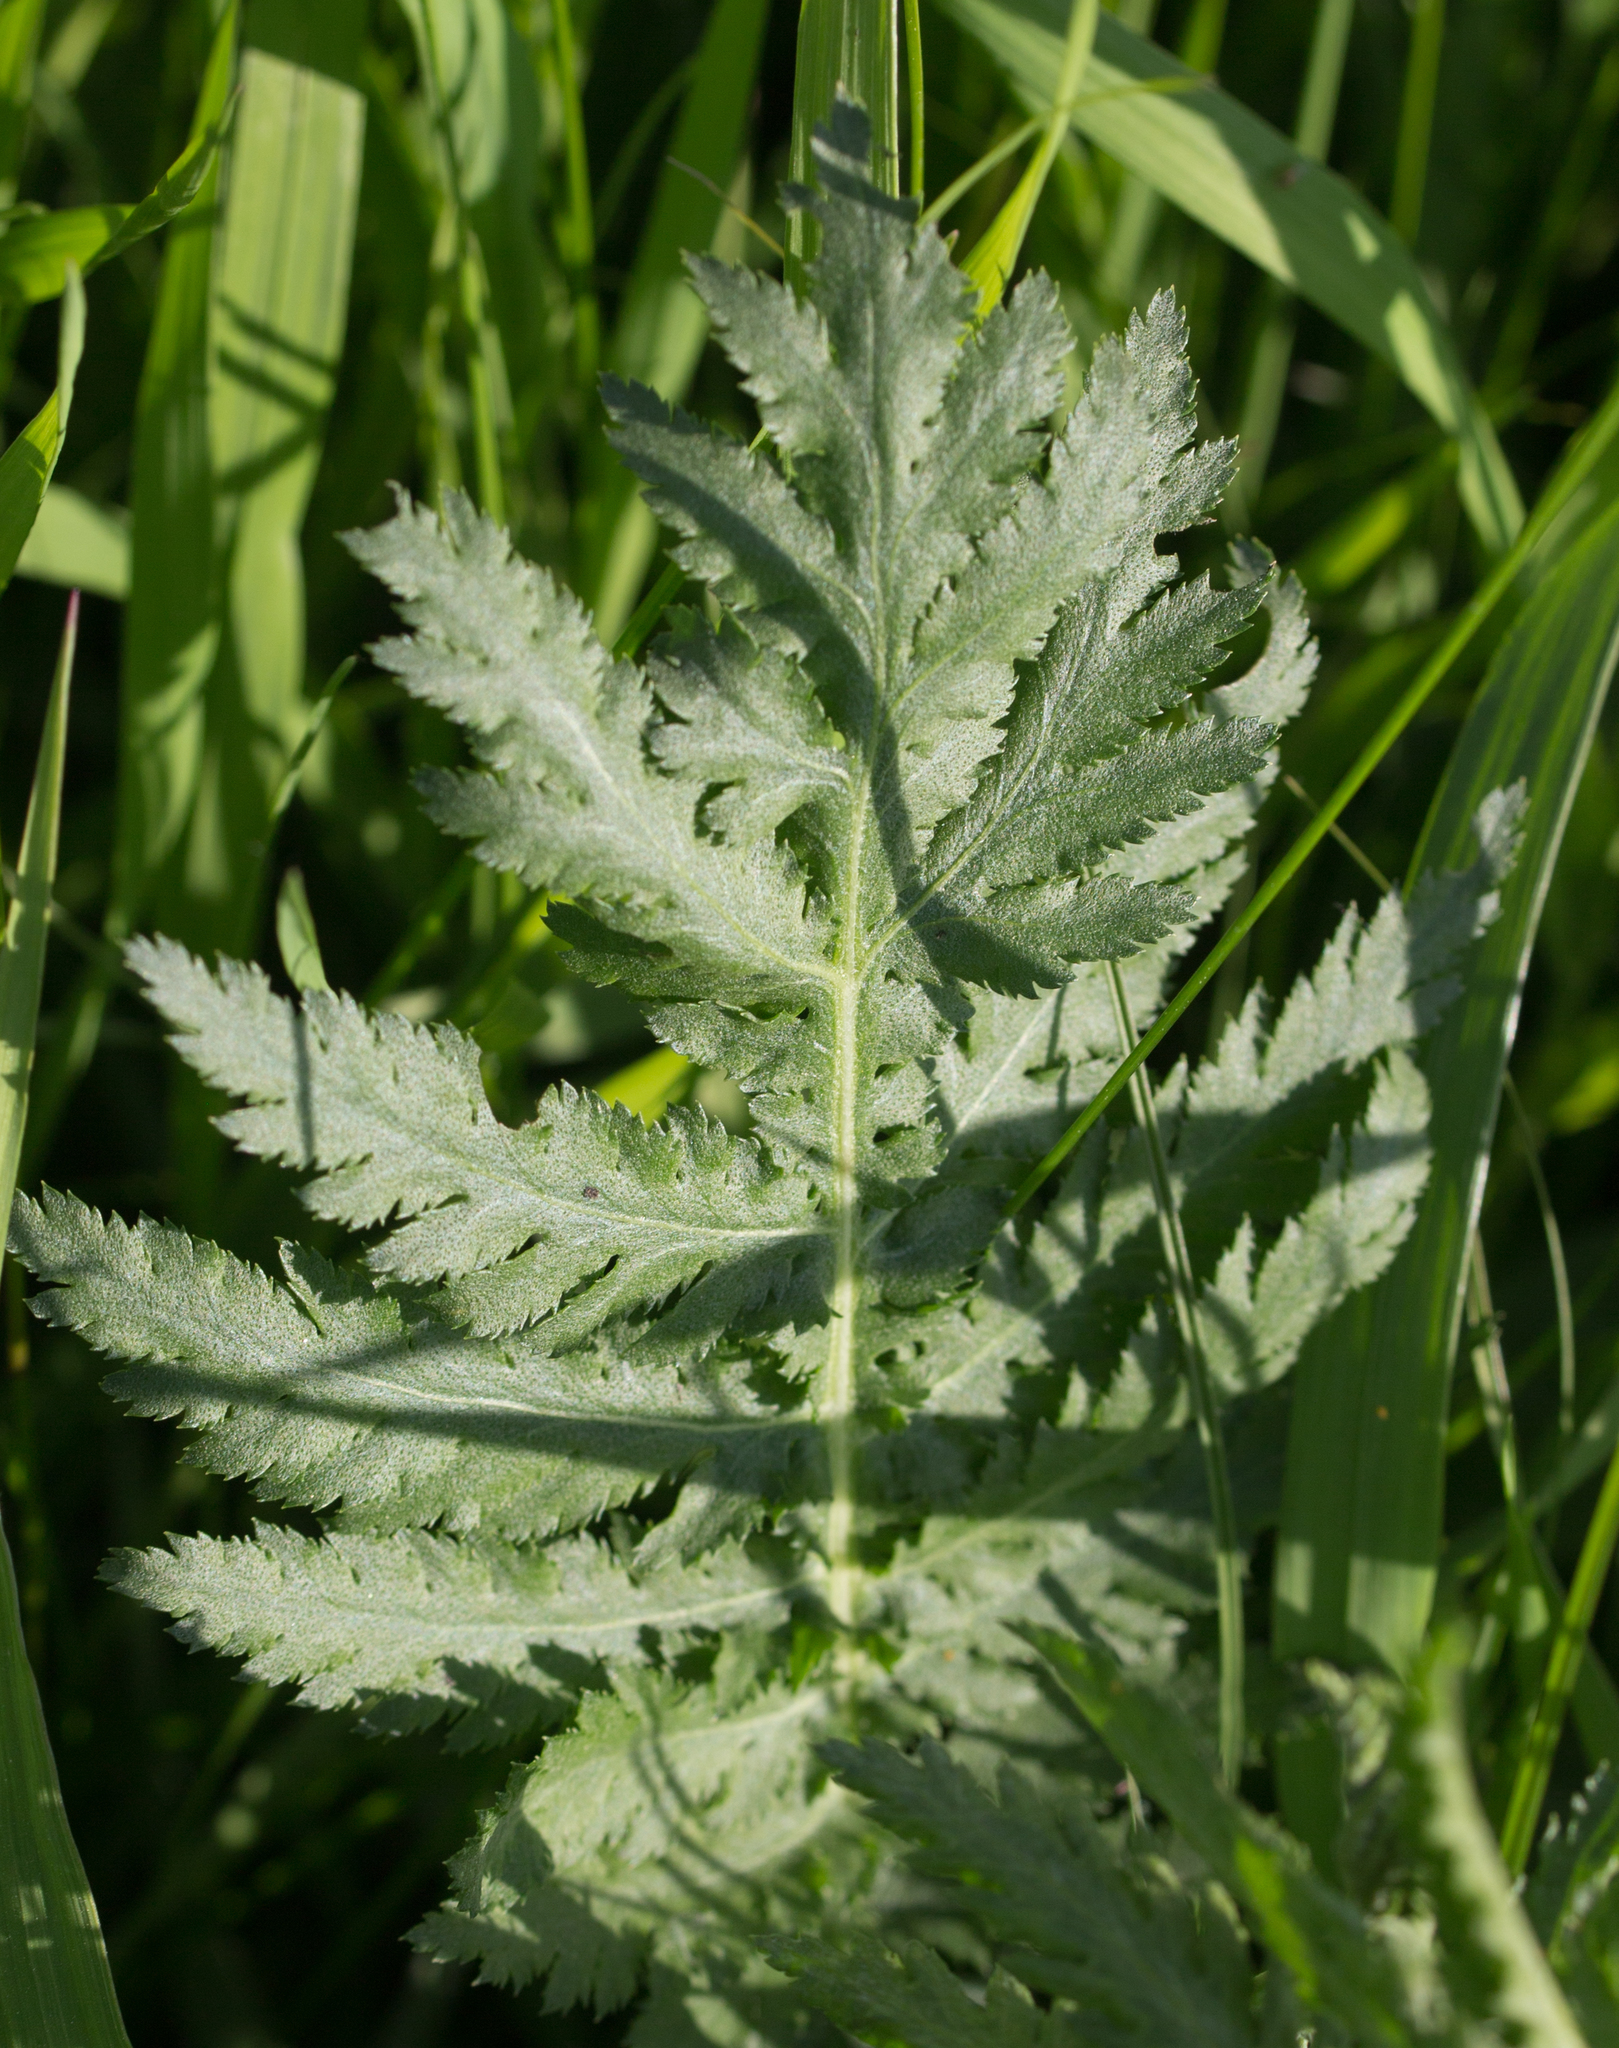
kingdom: Plantae
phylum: Tracheophyta
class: Magnoliopsida
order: Asterales
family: Asteraceae
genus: Tanacetum
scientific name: Tanacetum vulgare
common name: Common tansy
